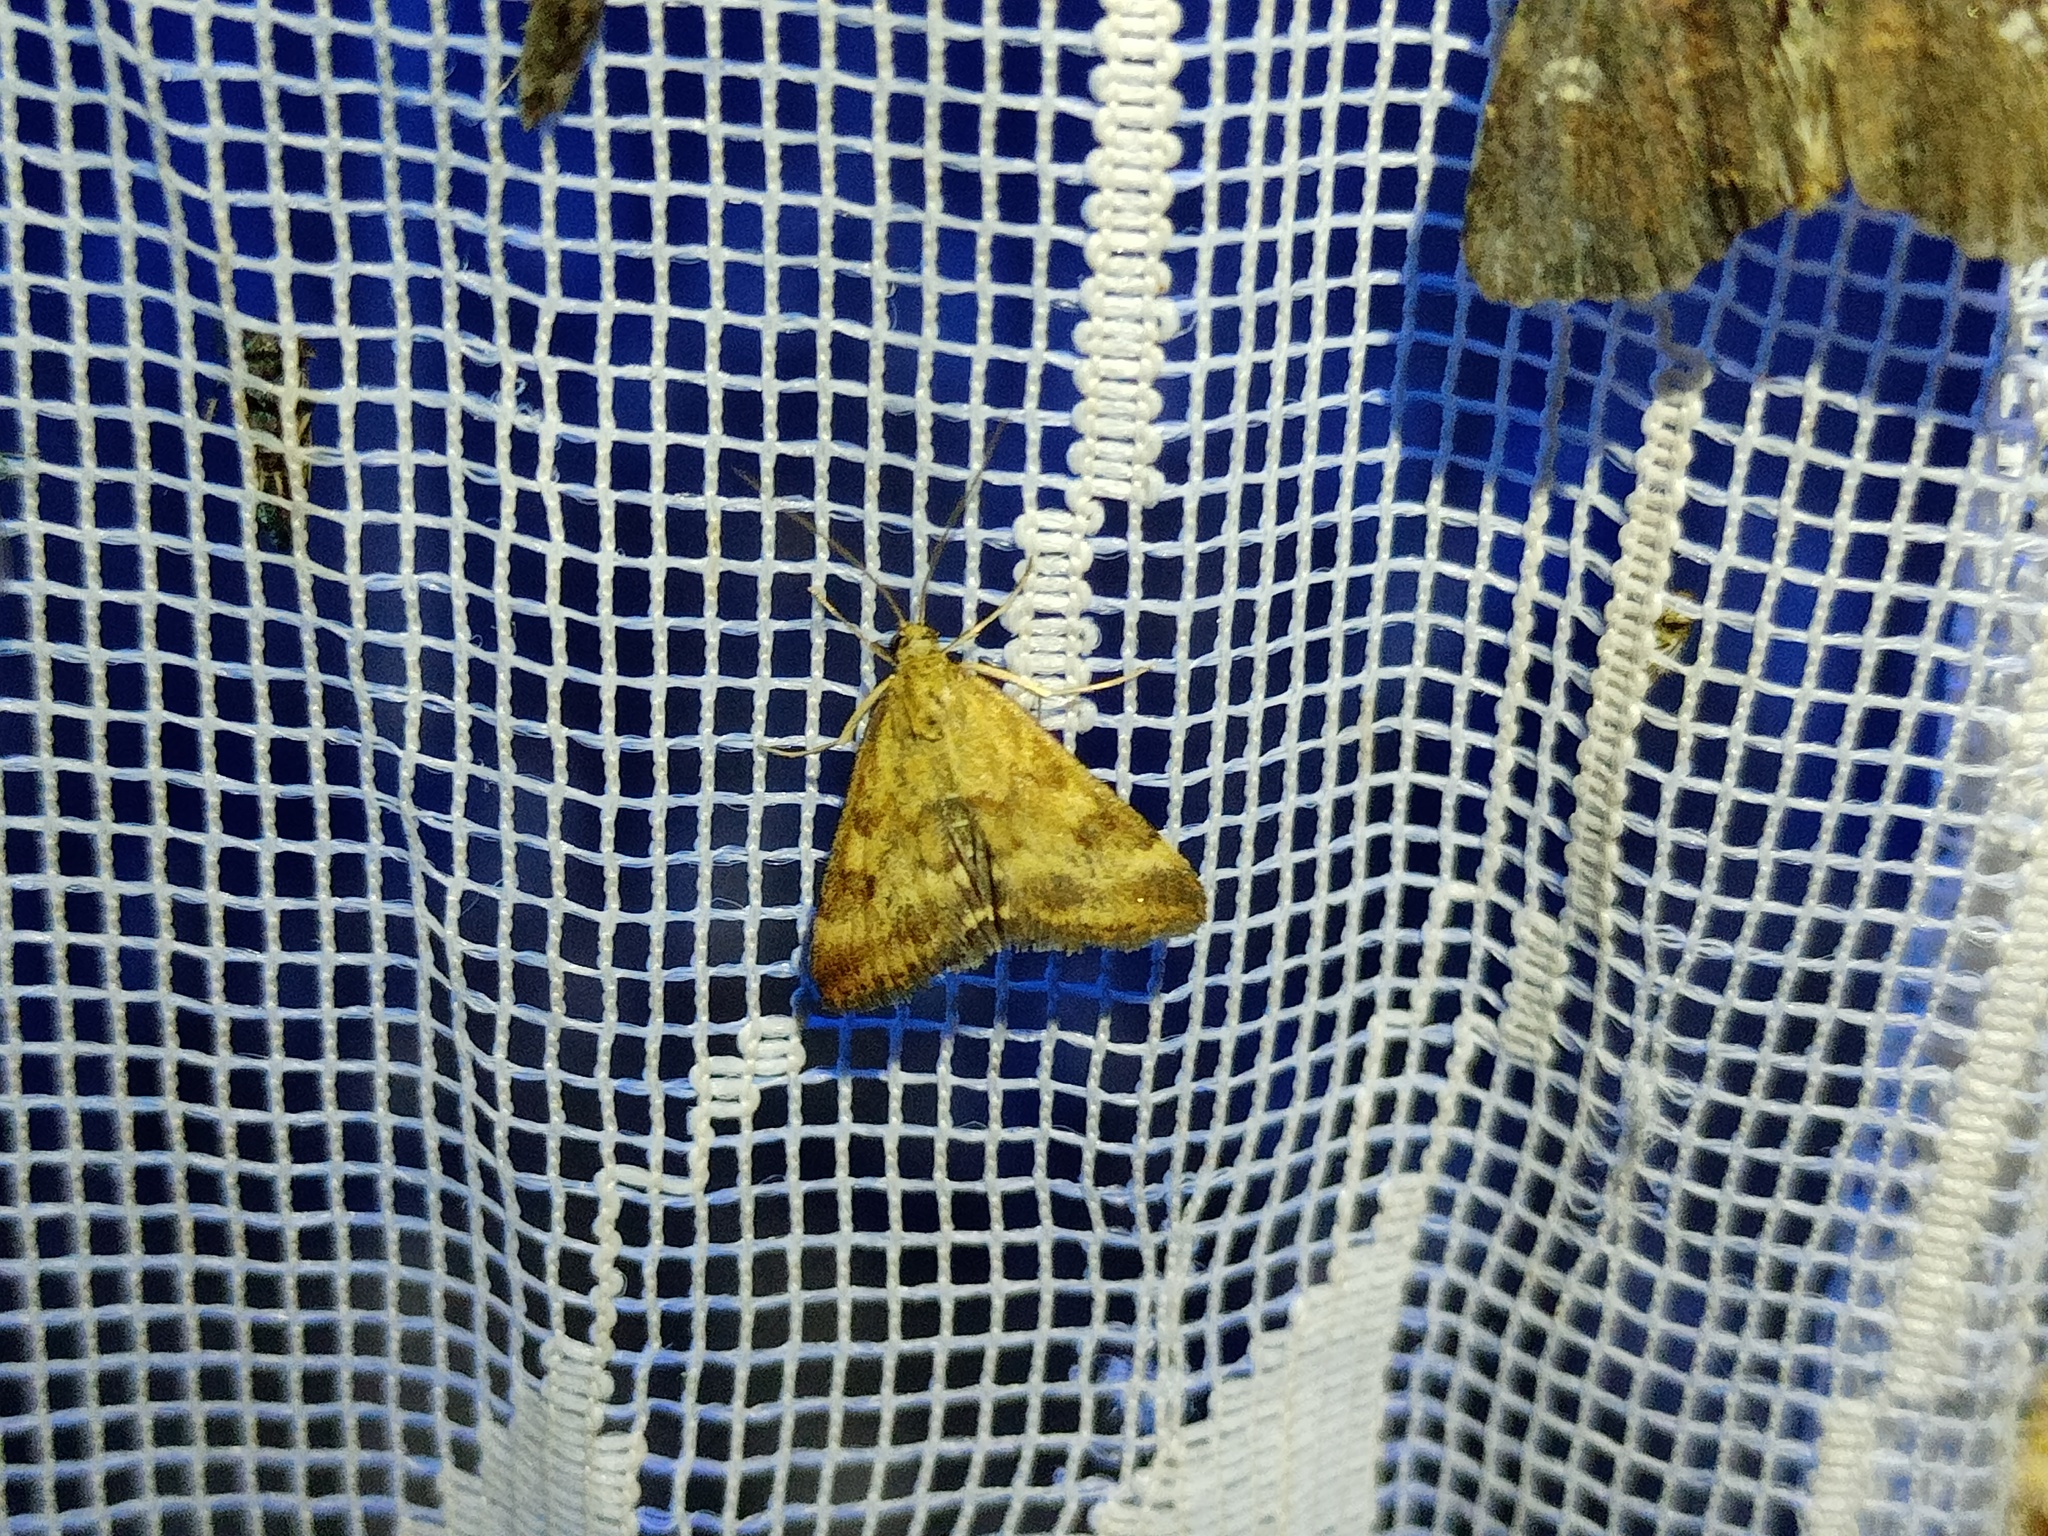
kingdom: Animalia
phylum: Arthropoda
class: Insecta
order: Lepidoptera
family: Crambidae
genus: Pyrausta
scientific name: Pyrausta despicata
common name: Straw-barred pearl
